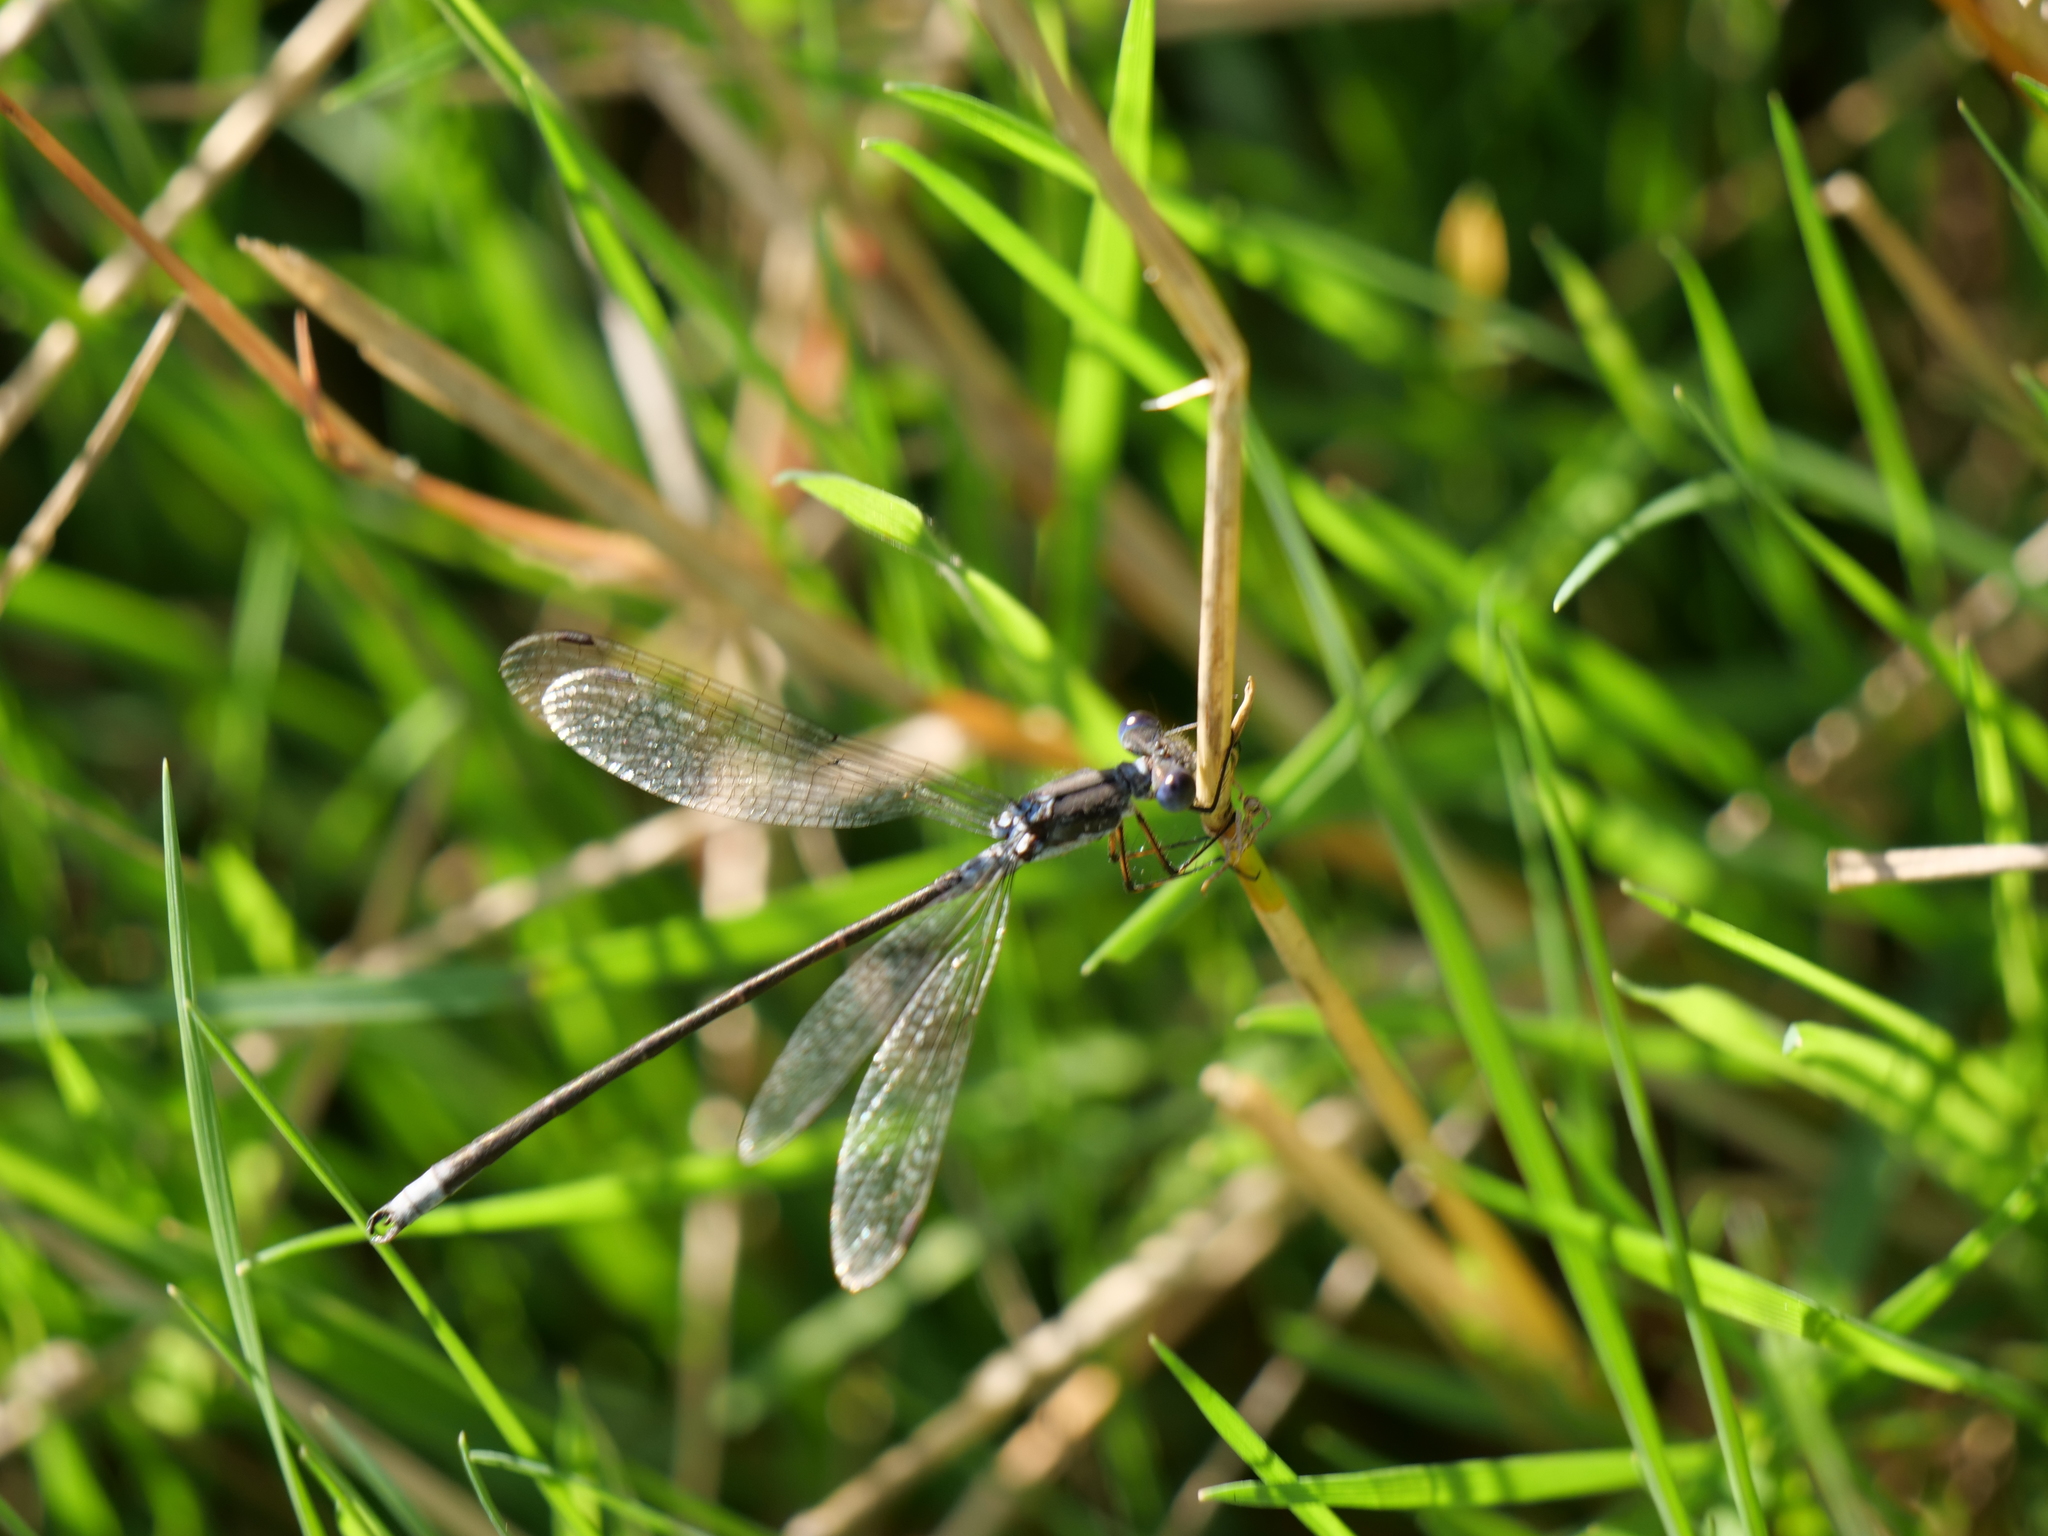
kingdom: Animalia
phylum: Arthropoda
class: Insecta
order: Odonata
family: Lestidae
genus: Lestes
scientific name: Lestes congener
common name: Spotted spreadwing
